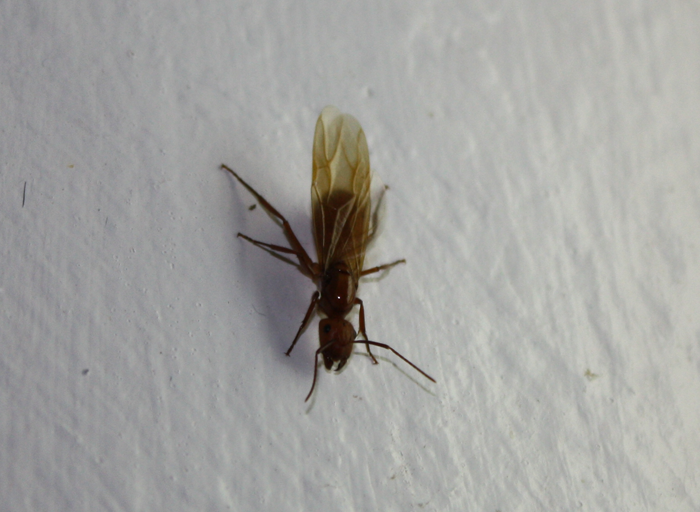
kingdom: Animalia
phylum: Arthropoda
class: Insecta
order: Hymenoptera
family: Formicidae
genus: Camponotus
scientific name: Camponotus hannani
